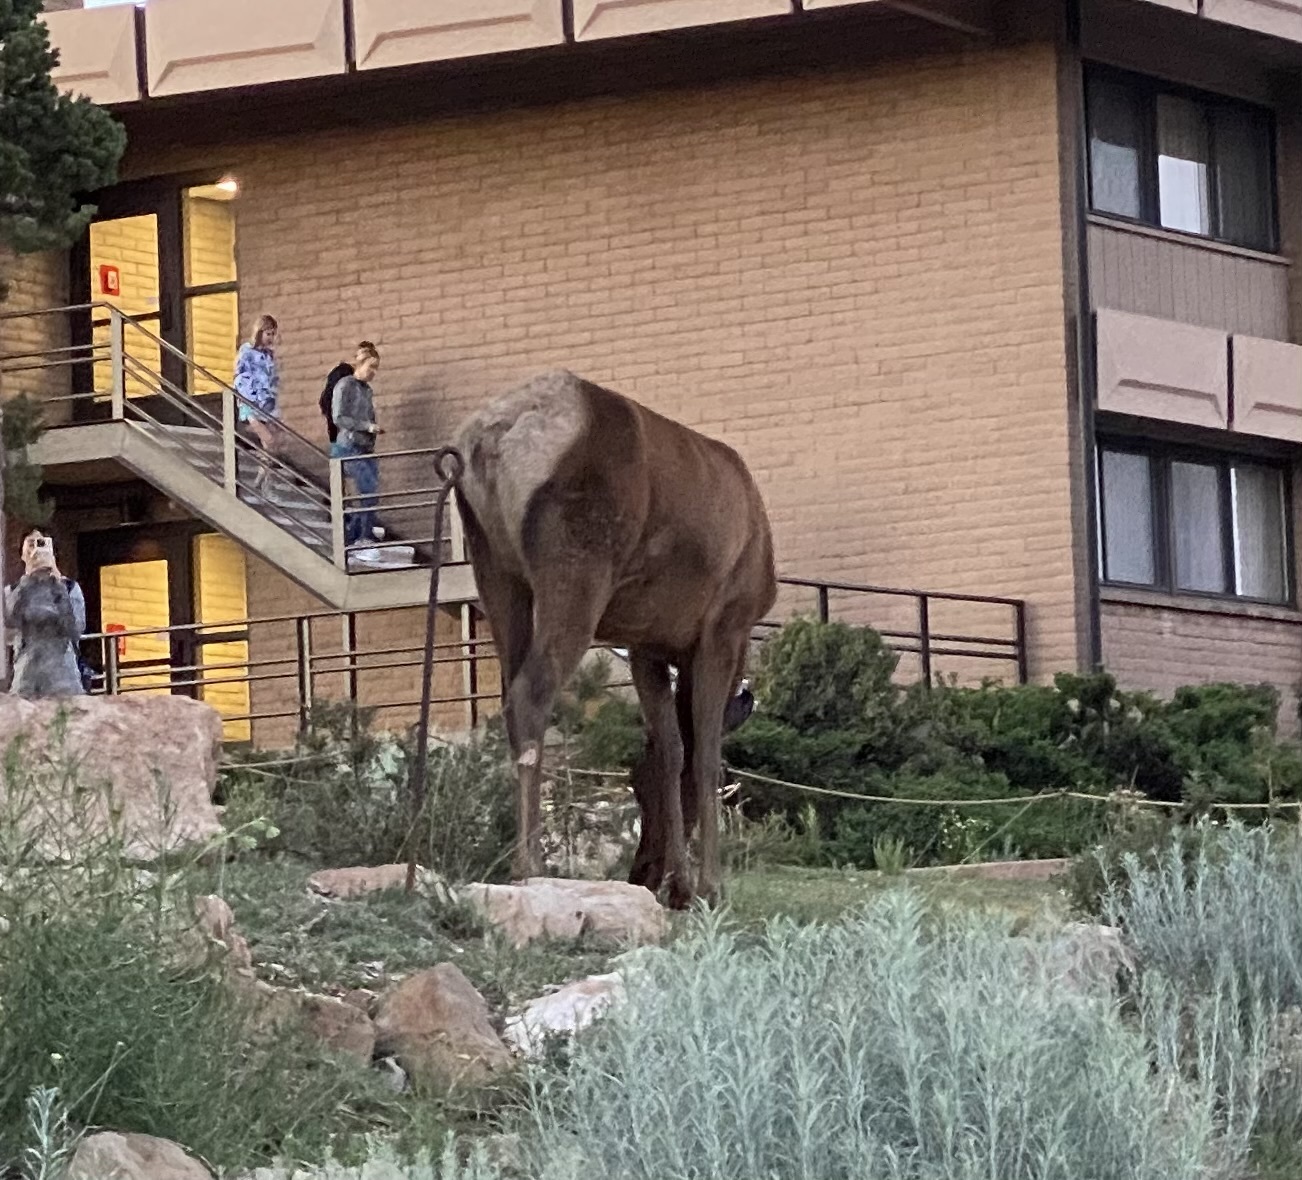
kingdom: Animalia
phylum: Chordata
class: Mammalia
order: Artiodactyla
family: Cervidae
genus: Cervus
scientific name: Cervus elaphus
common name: Red deer
